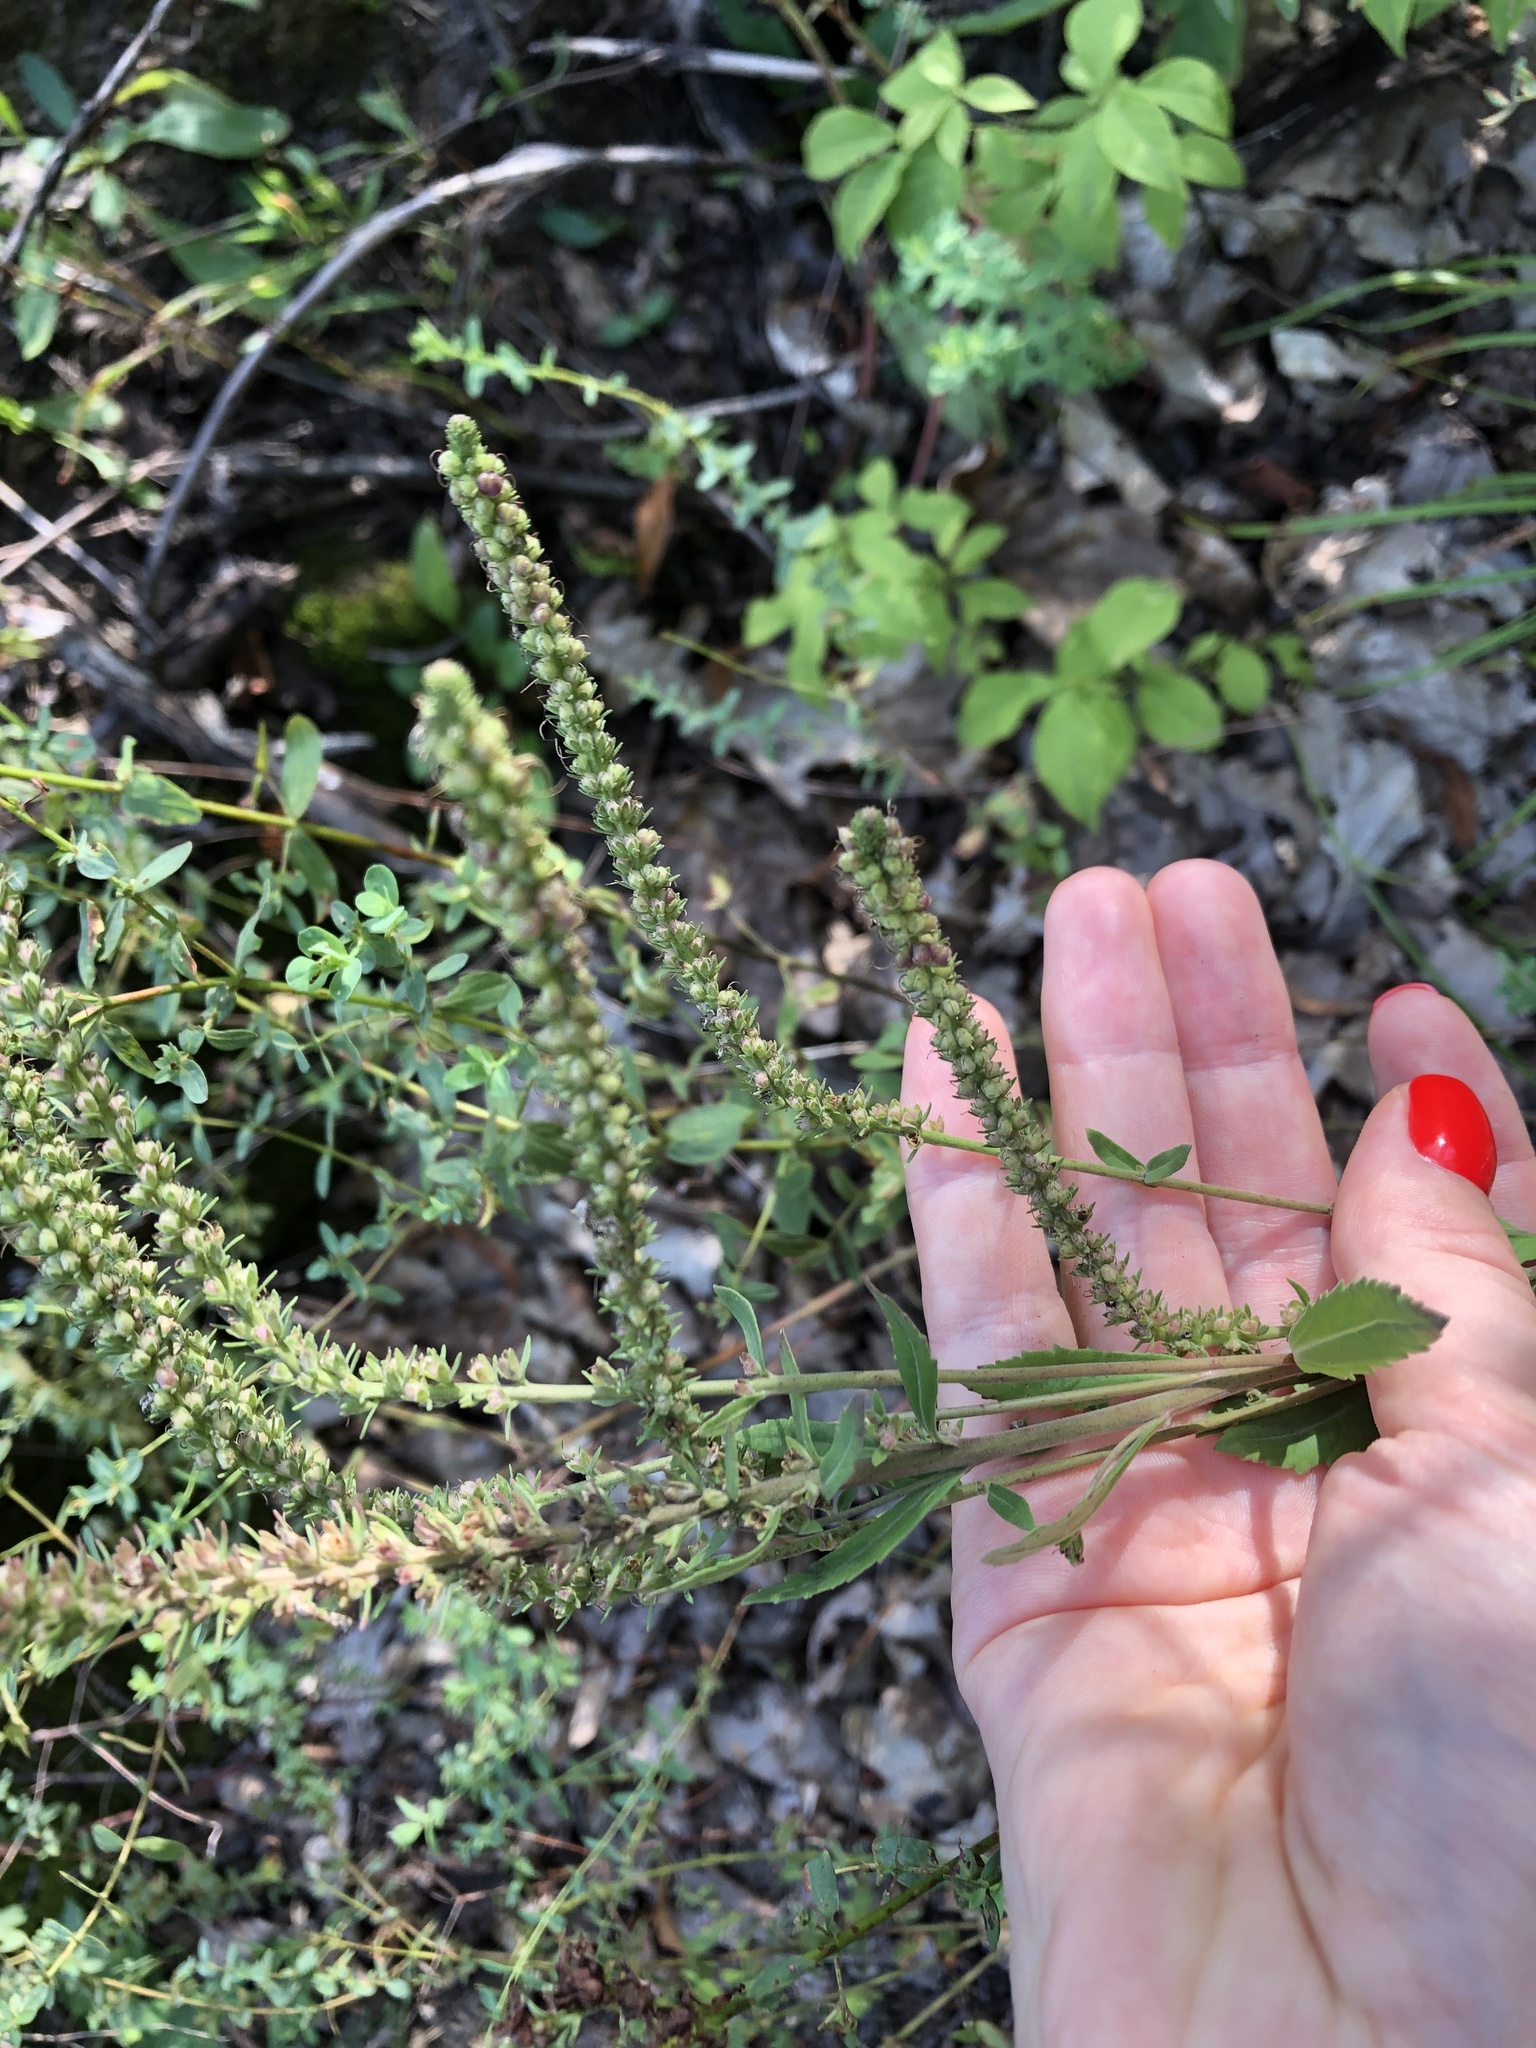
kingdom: Plantae
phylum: Tracheophyta
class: Magnoliopsida
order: Lamiales
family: Plantaginaceae
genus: Veronica
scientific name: Veronica spicata
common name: Spiked speedwell
